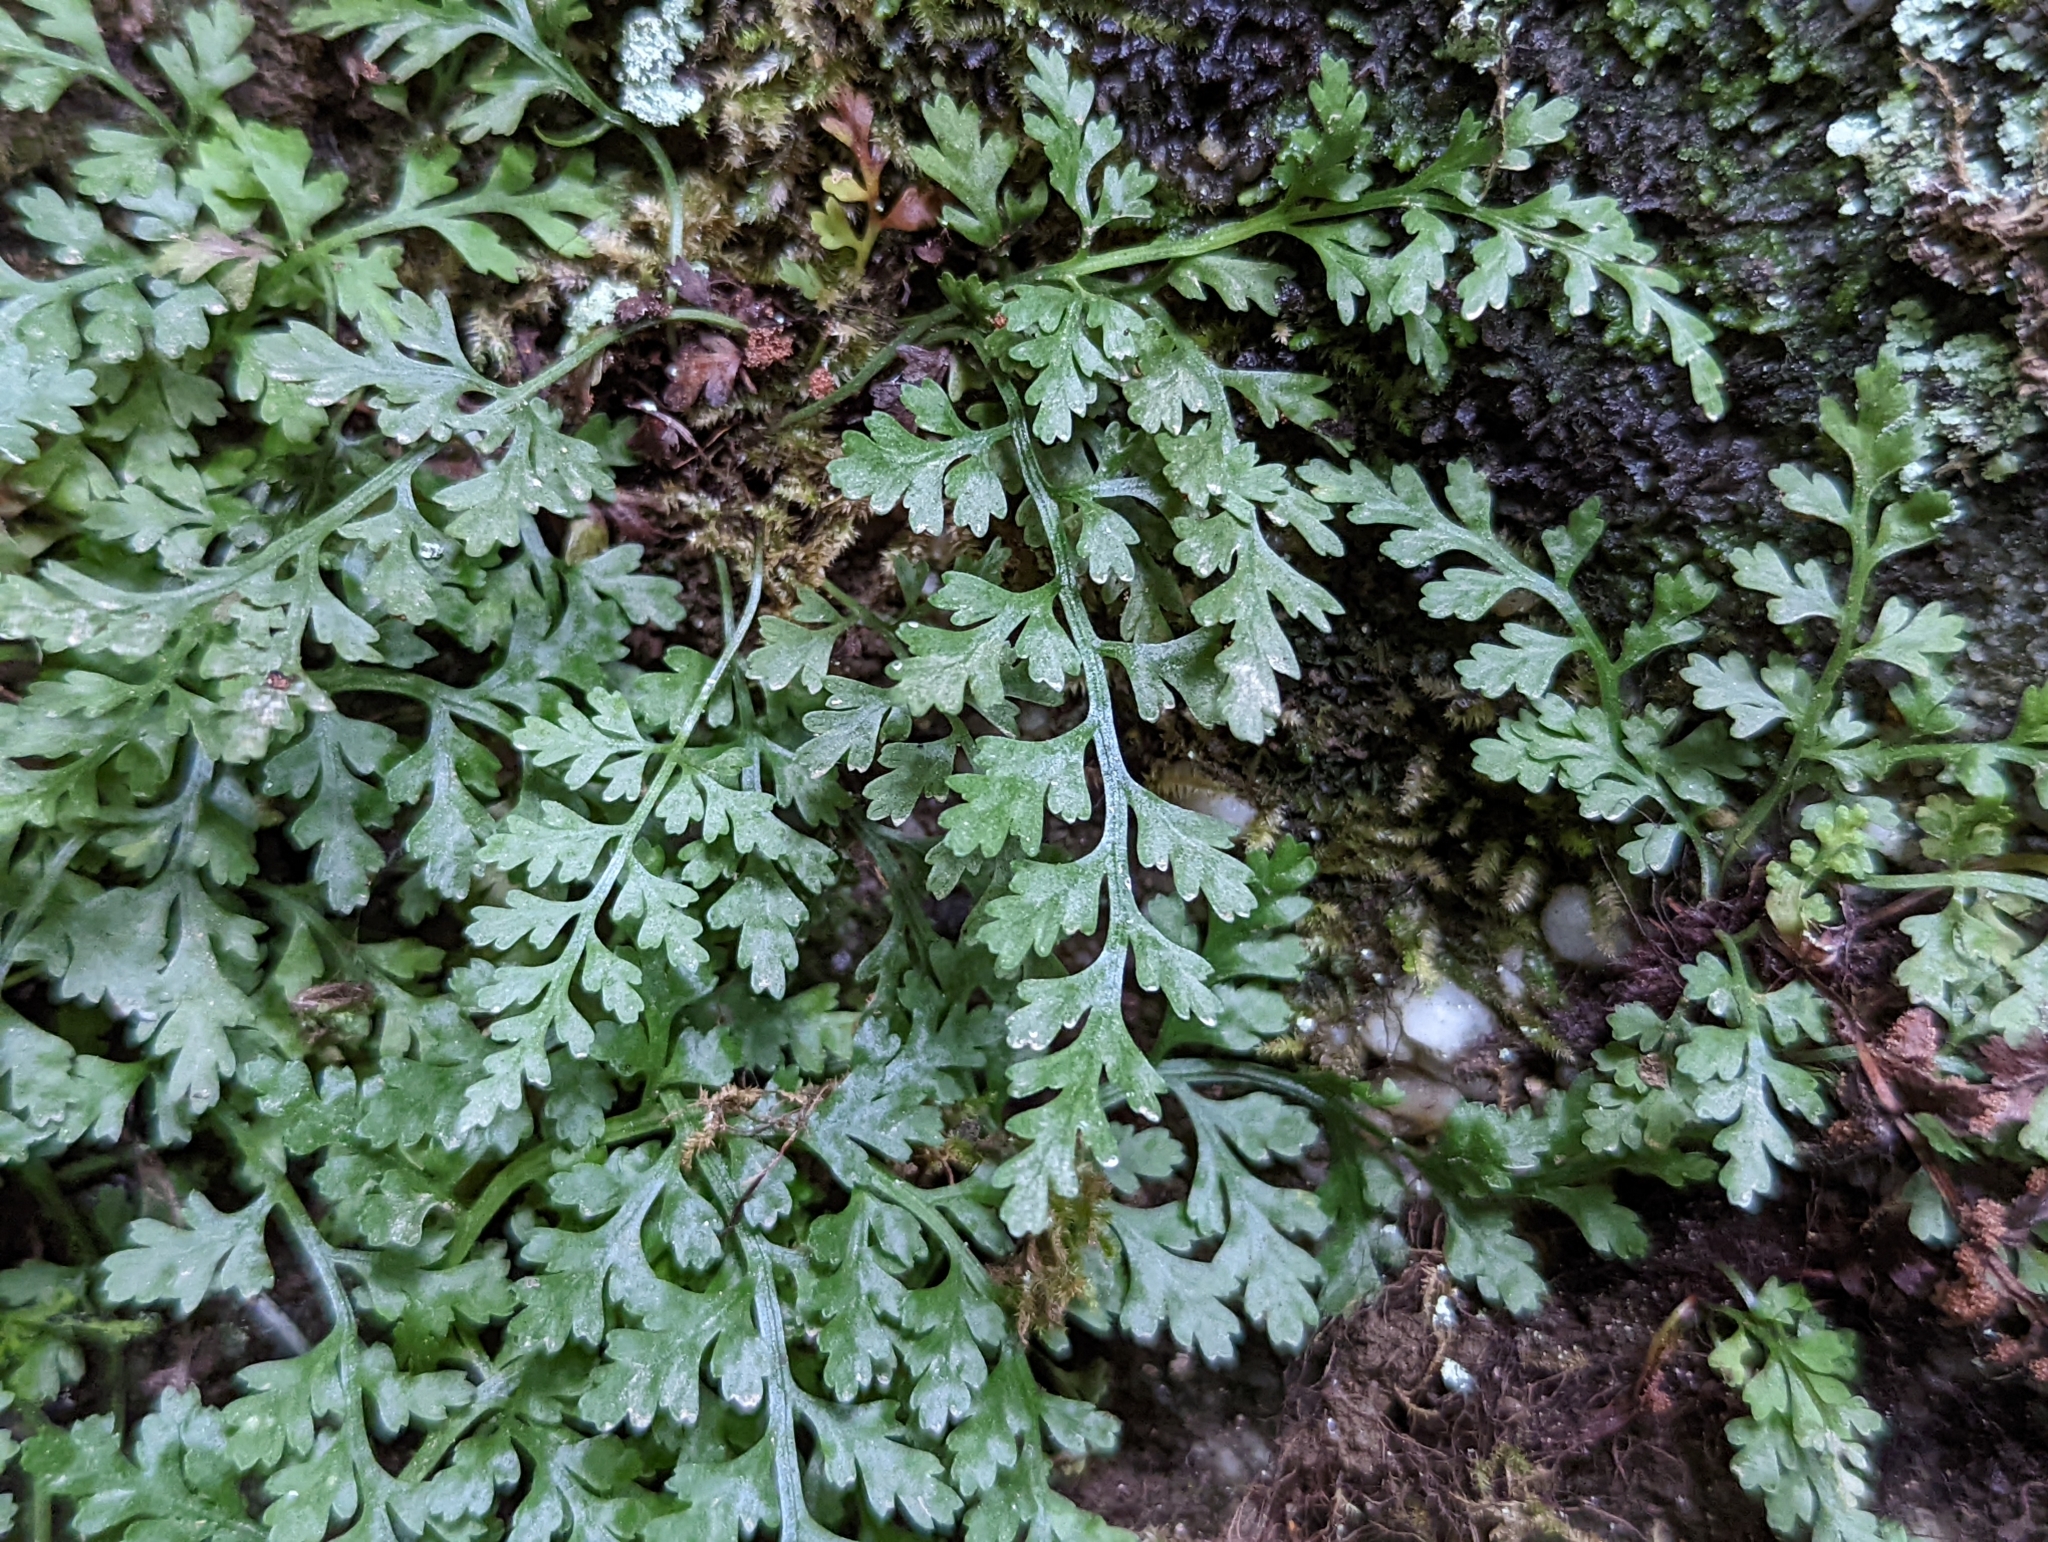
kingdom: Plantae
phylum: Tracheophyta
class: Polypodiopsida
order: Polypodiales
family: Aspleniaceae
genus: Asplenium
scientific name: Asplenium montanum
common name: Mountain spleenwort
